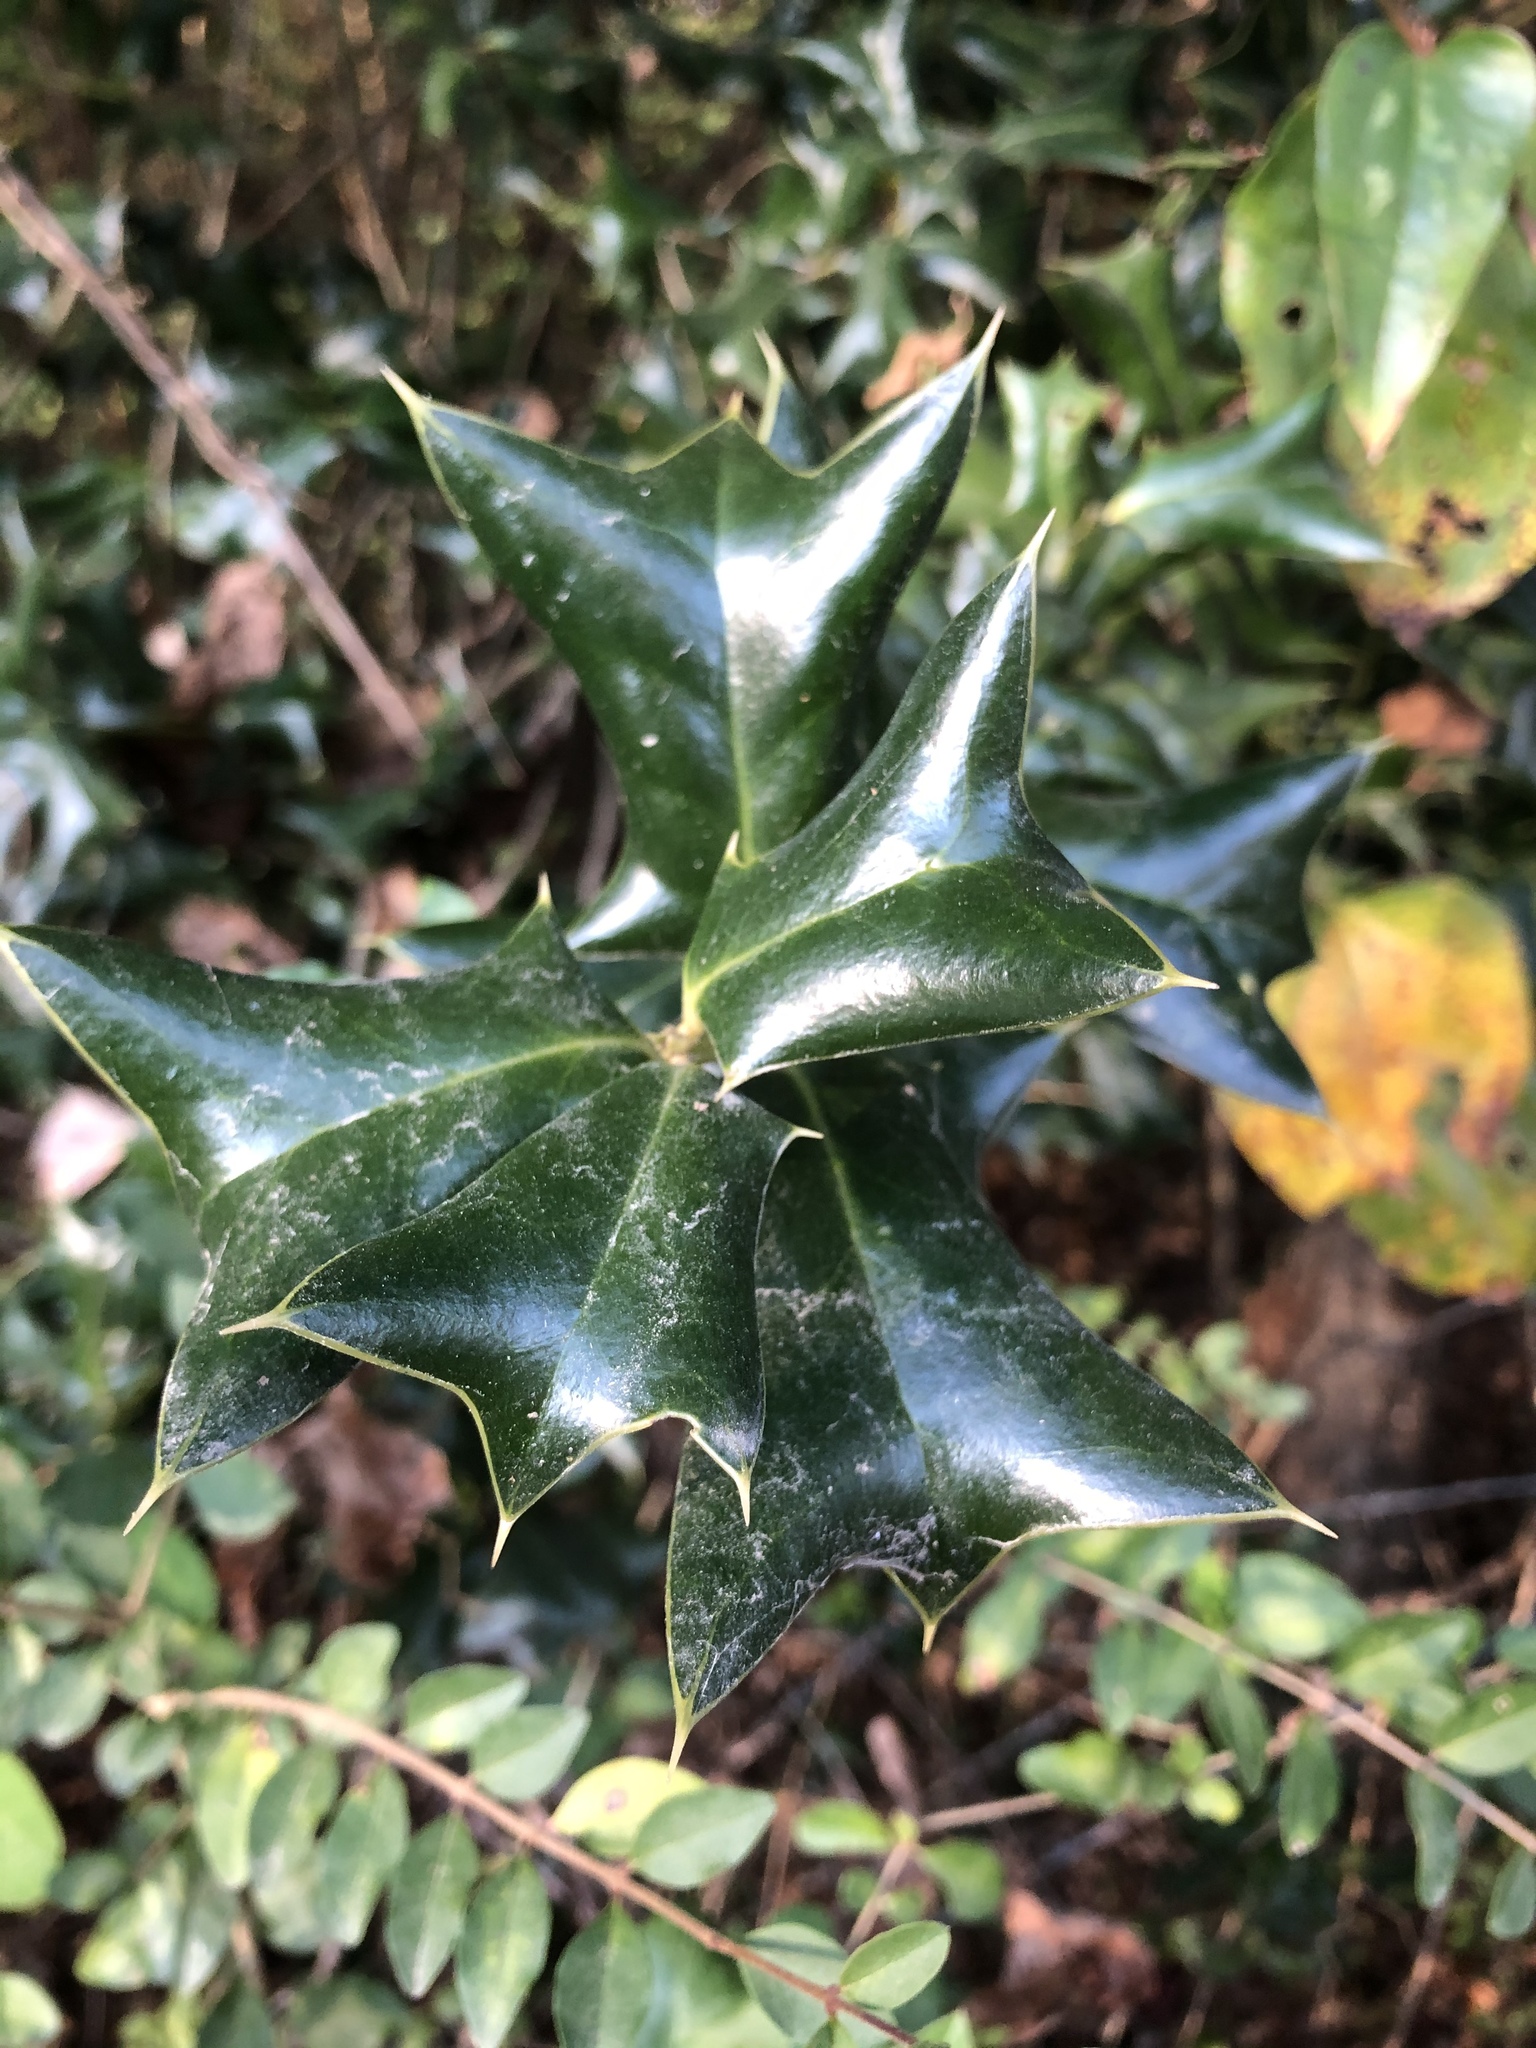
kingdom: Plantae
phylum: Tracheophyta
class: Magnoliopsida
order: Aquifoliales
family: Aquifoliaceae
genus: Ilex
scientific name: Ilex cornuta
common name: Chinese holly
